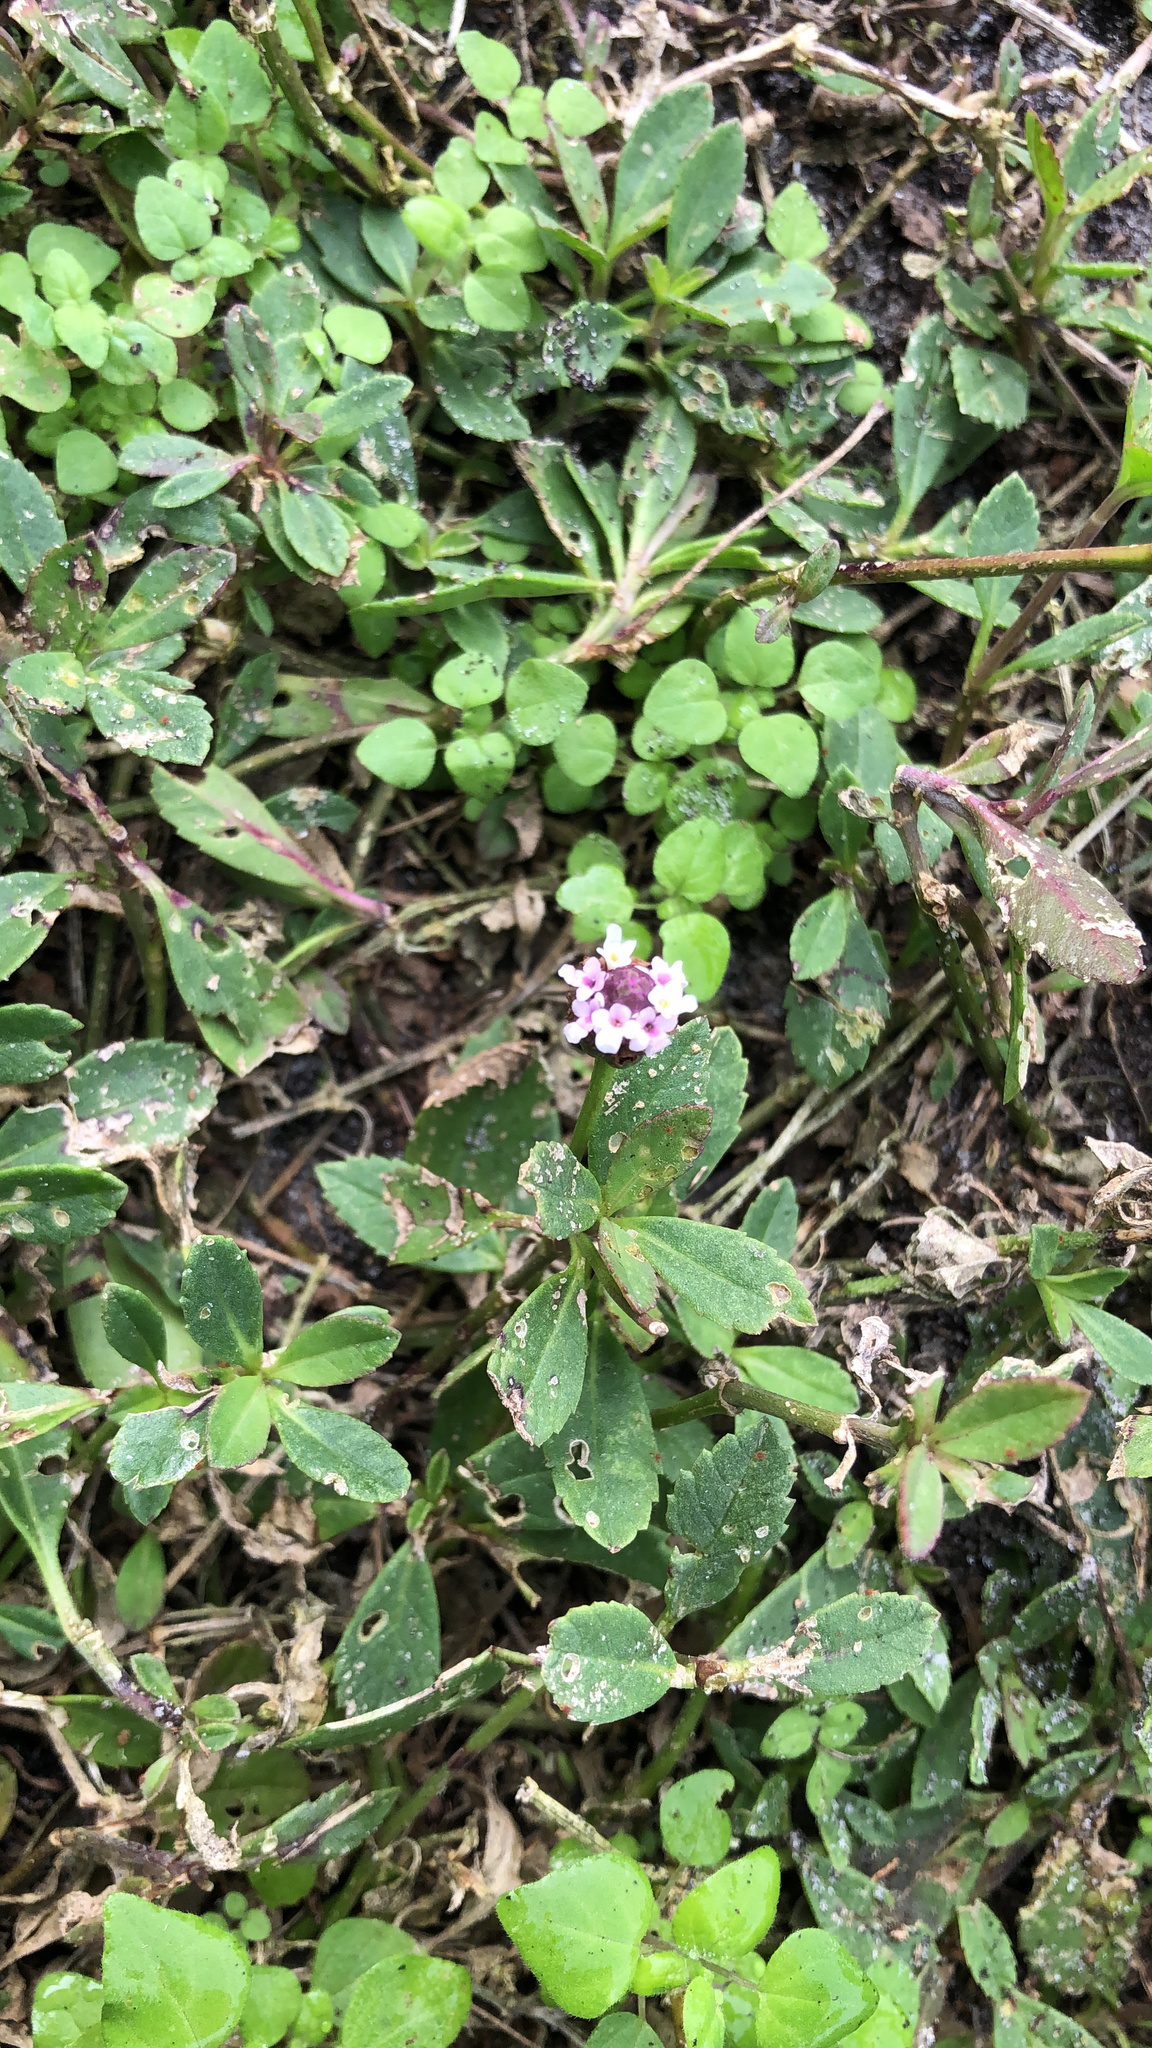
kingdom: Plantae
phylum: Tracheophyta
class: Magnoliopsida
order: Lamiales
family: Verbenaceae
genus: Phyla
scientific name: Phyla nodiflora
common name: Frogfruit
